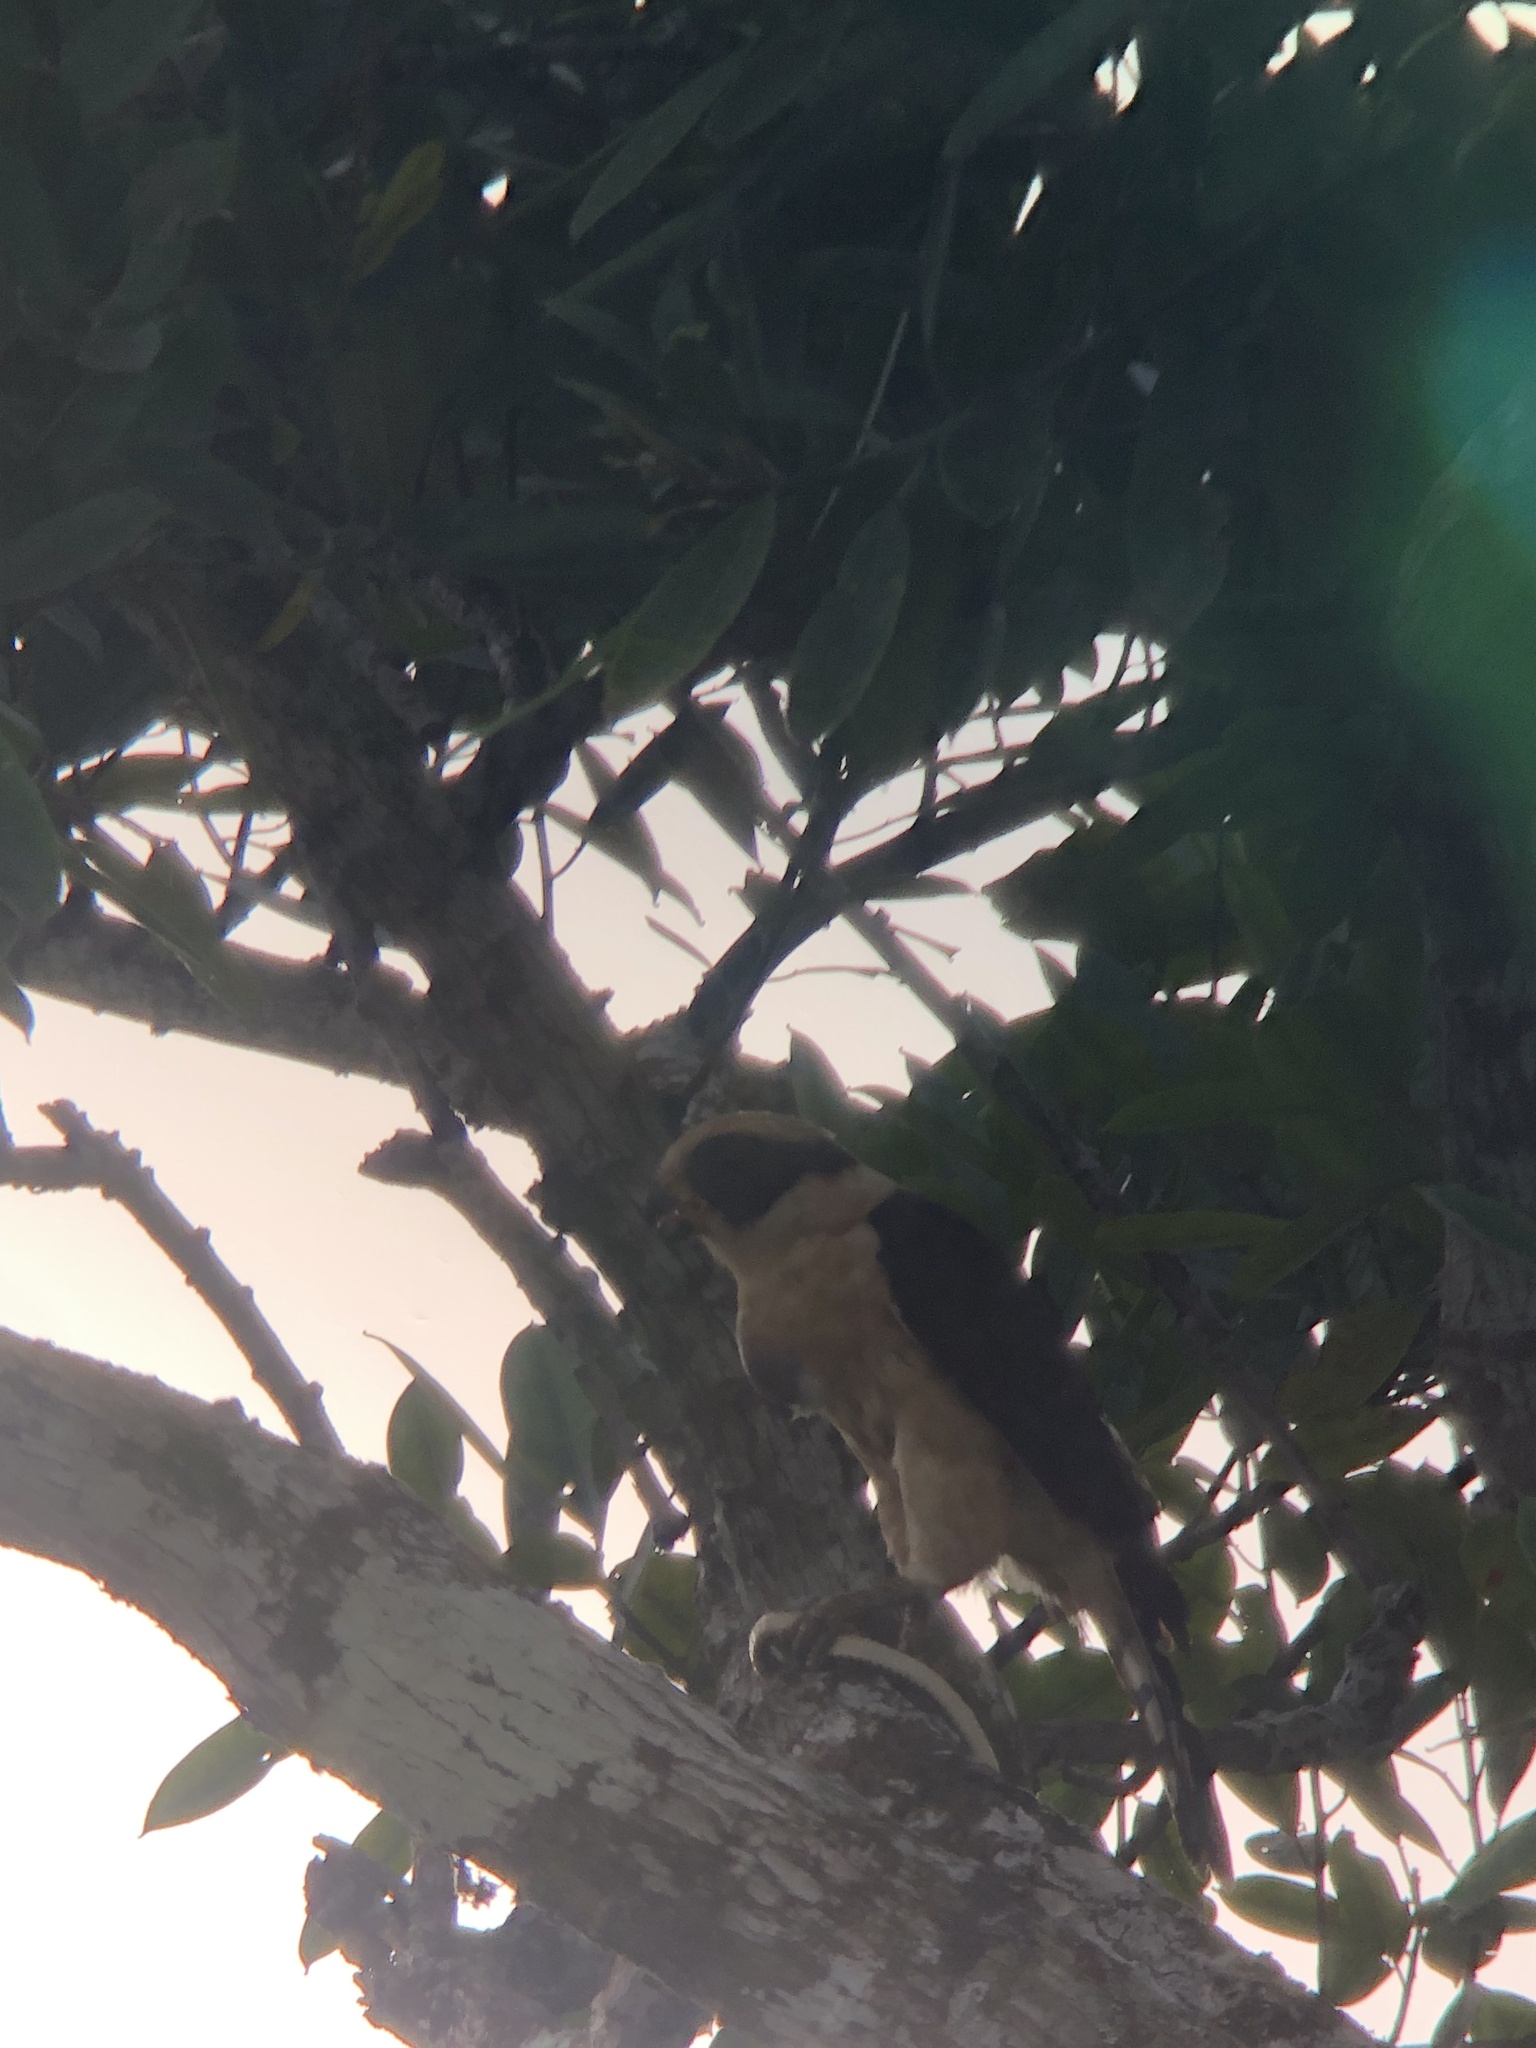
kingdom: Animalia
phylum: Chordata
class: Aves
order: Falconiformes
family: Falconidae
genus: Herpetotheres
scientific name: Herpetotheres cachinnans
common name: Laughing falcon
